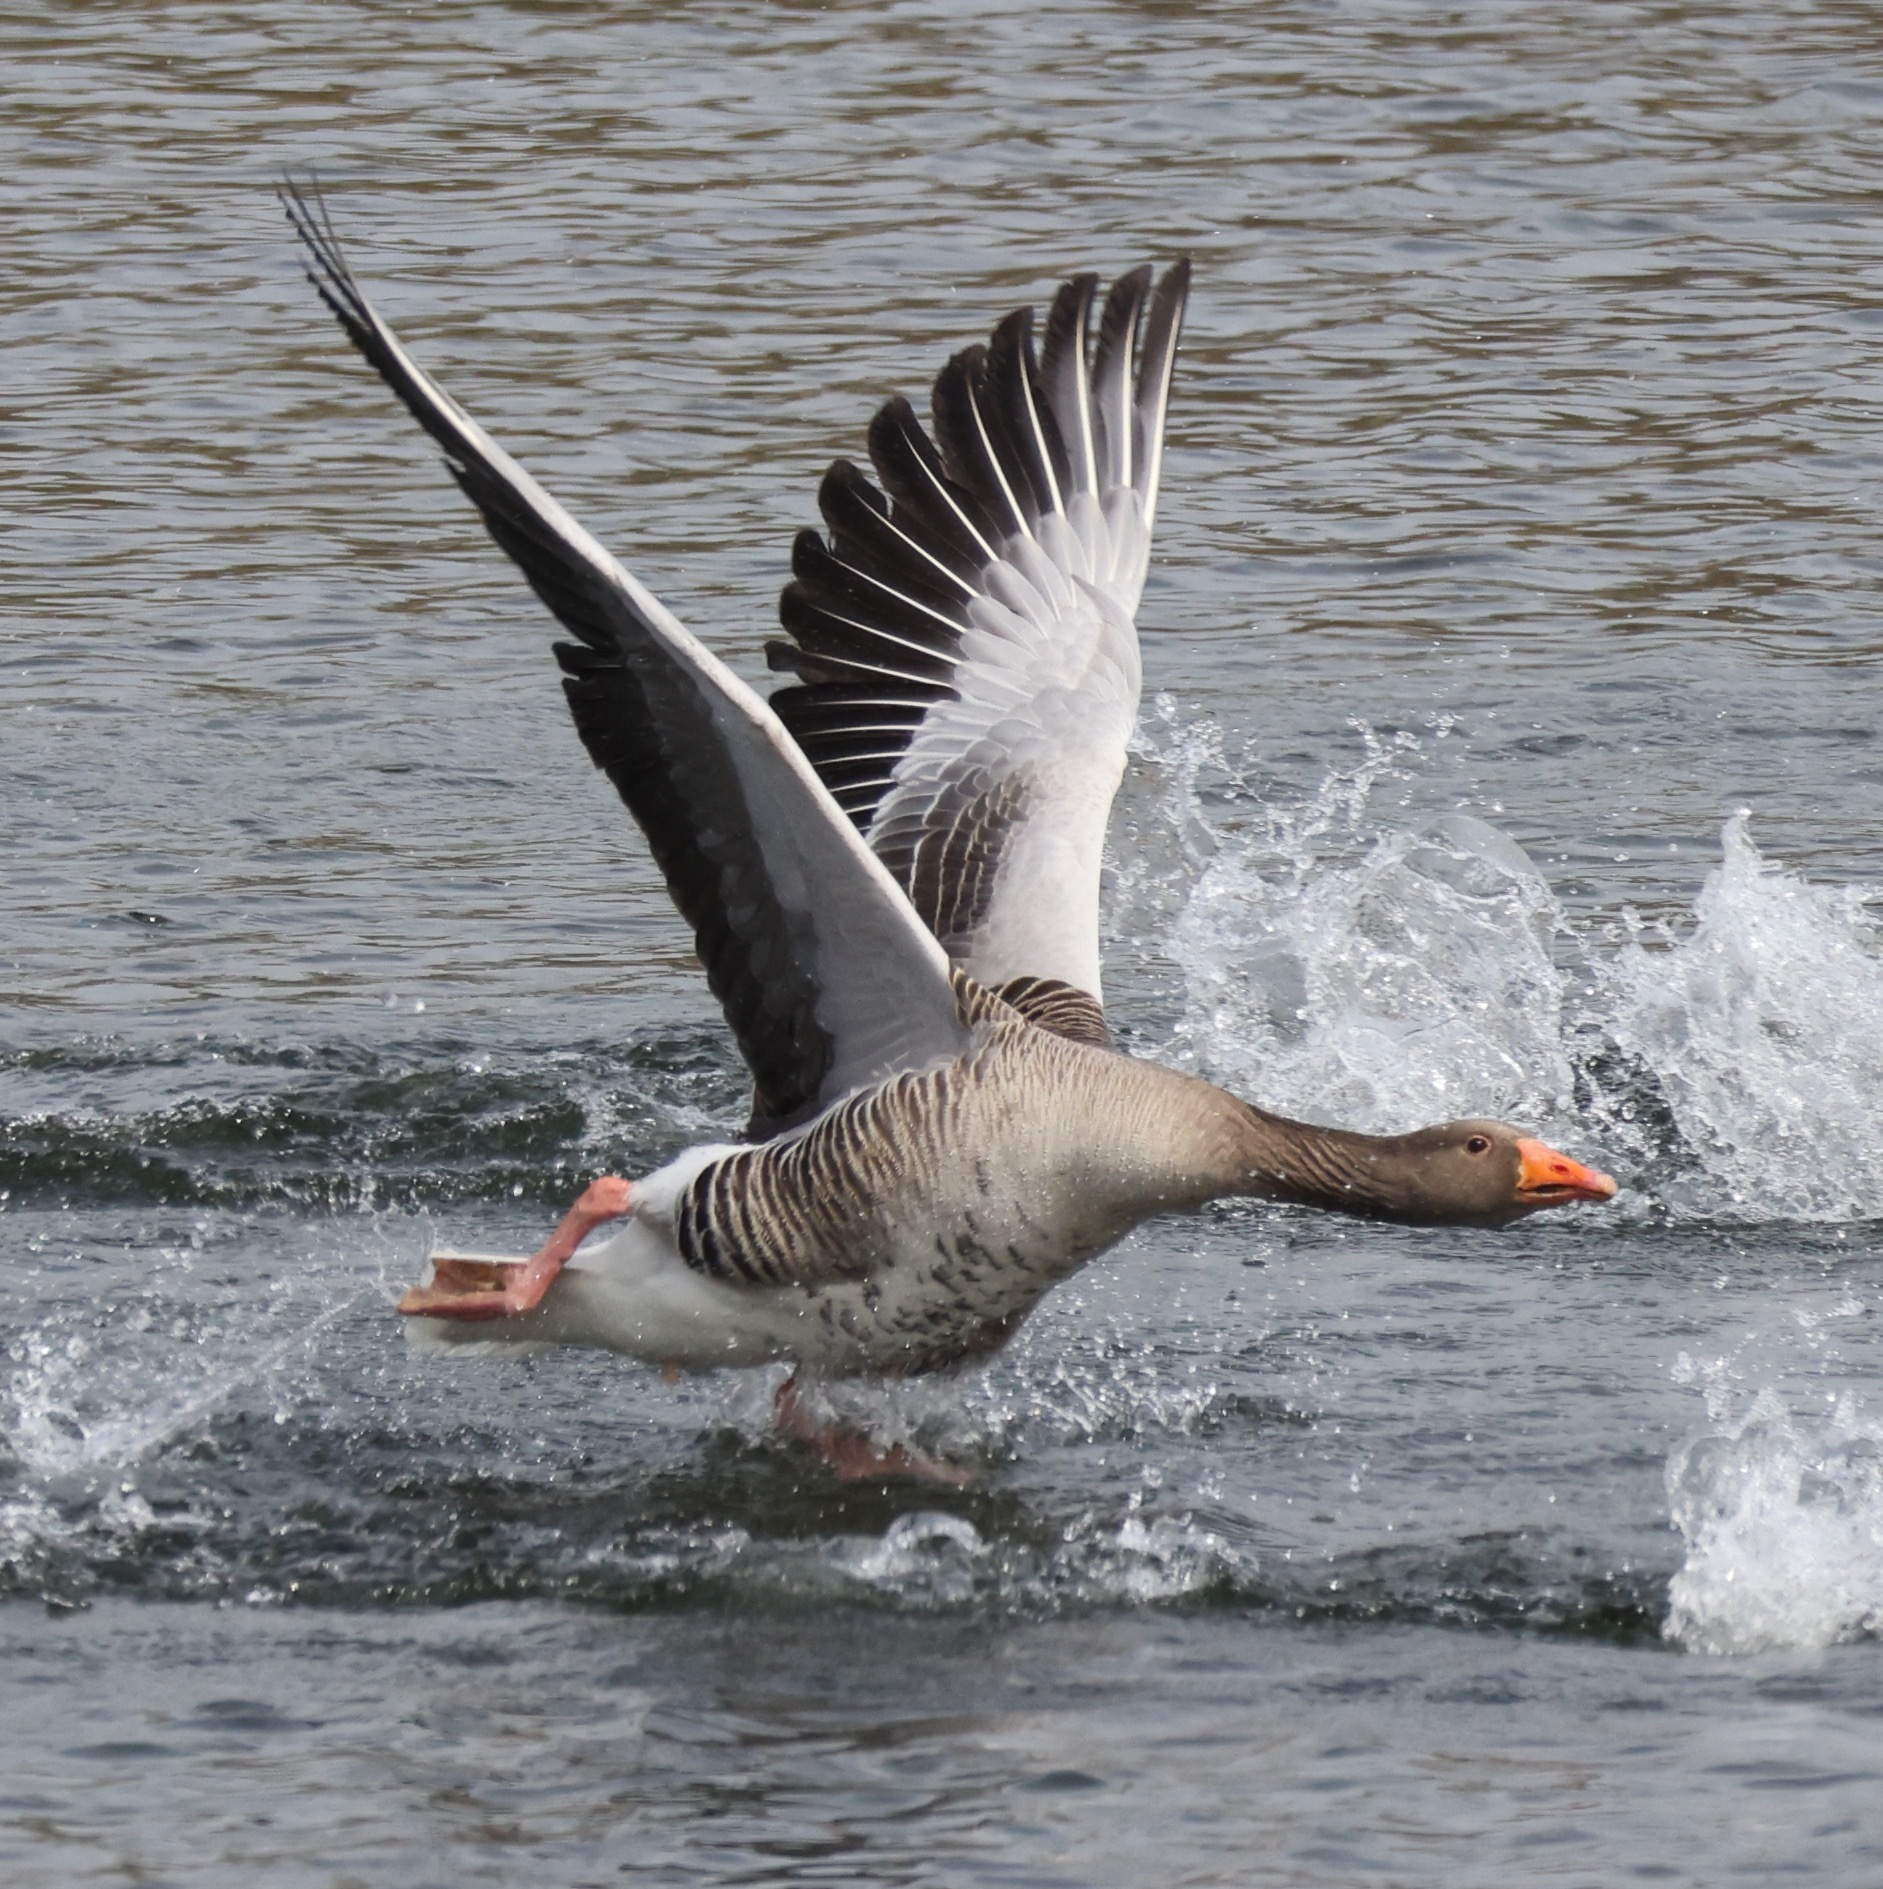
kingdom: Animalia
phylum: Chordata
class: Aves
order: Anseriformes
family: Anatidae
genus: Anser
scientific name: Anser anser
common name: Greylag goose
